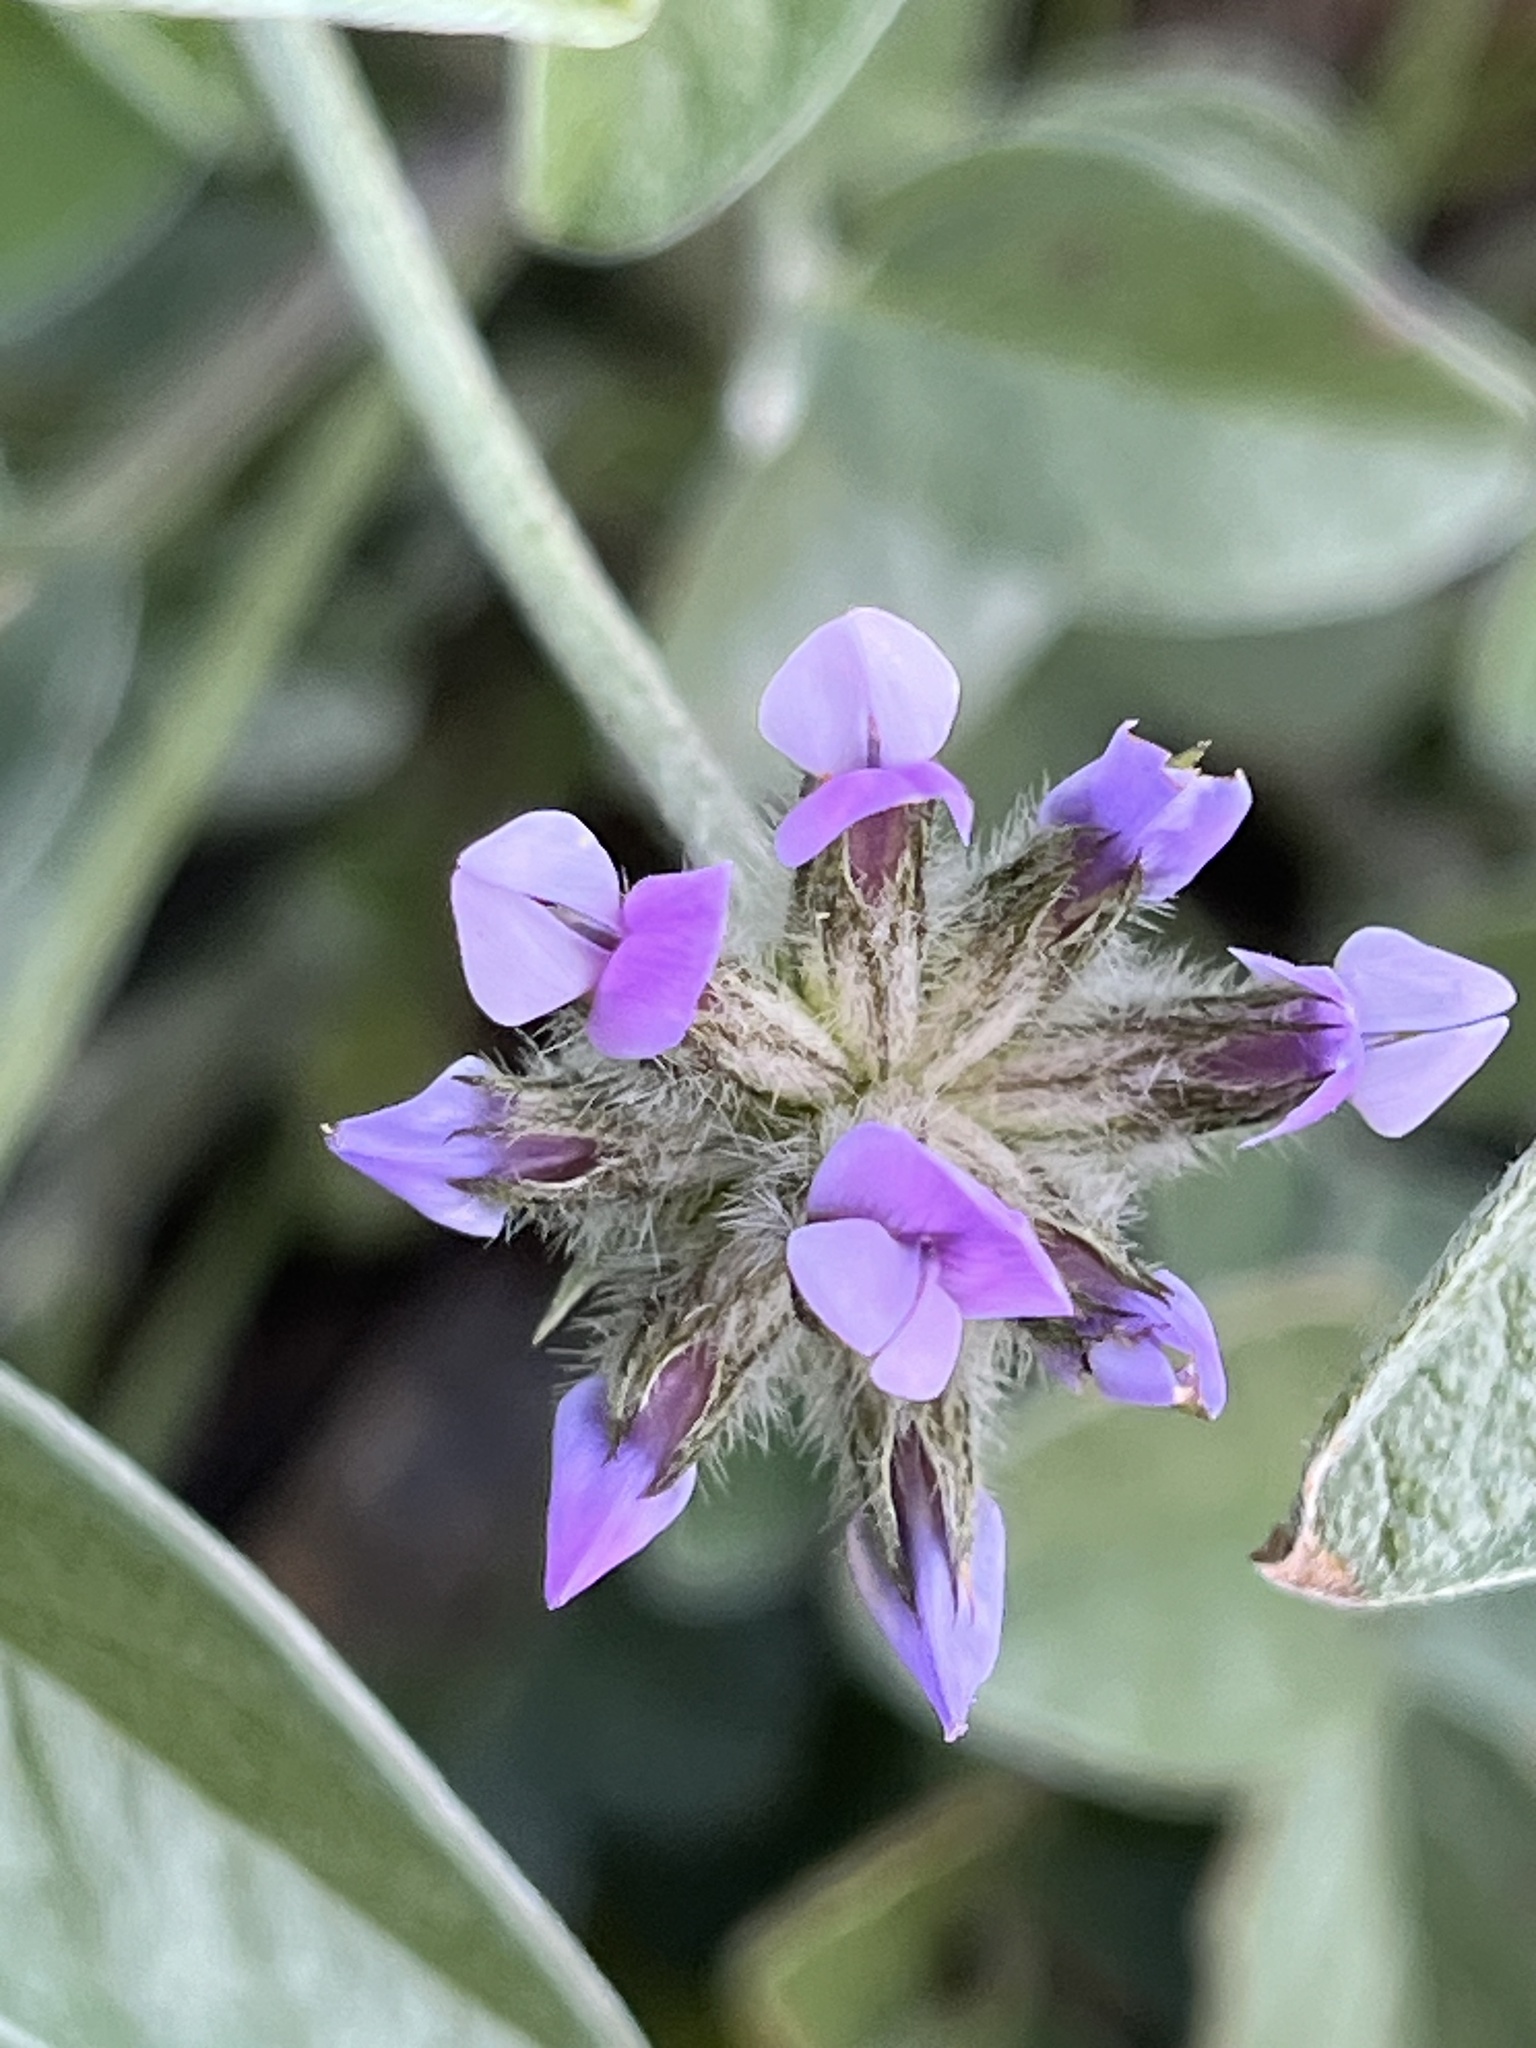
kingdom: Plantae
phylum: Tracheophyta
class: Magnoliopsida
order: Fabales
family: Fabaceae
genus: Bituminaria
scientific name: Bituminaria bituminosa
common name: Arabian pea
